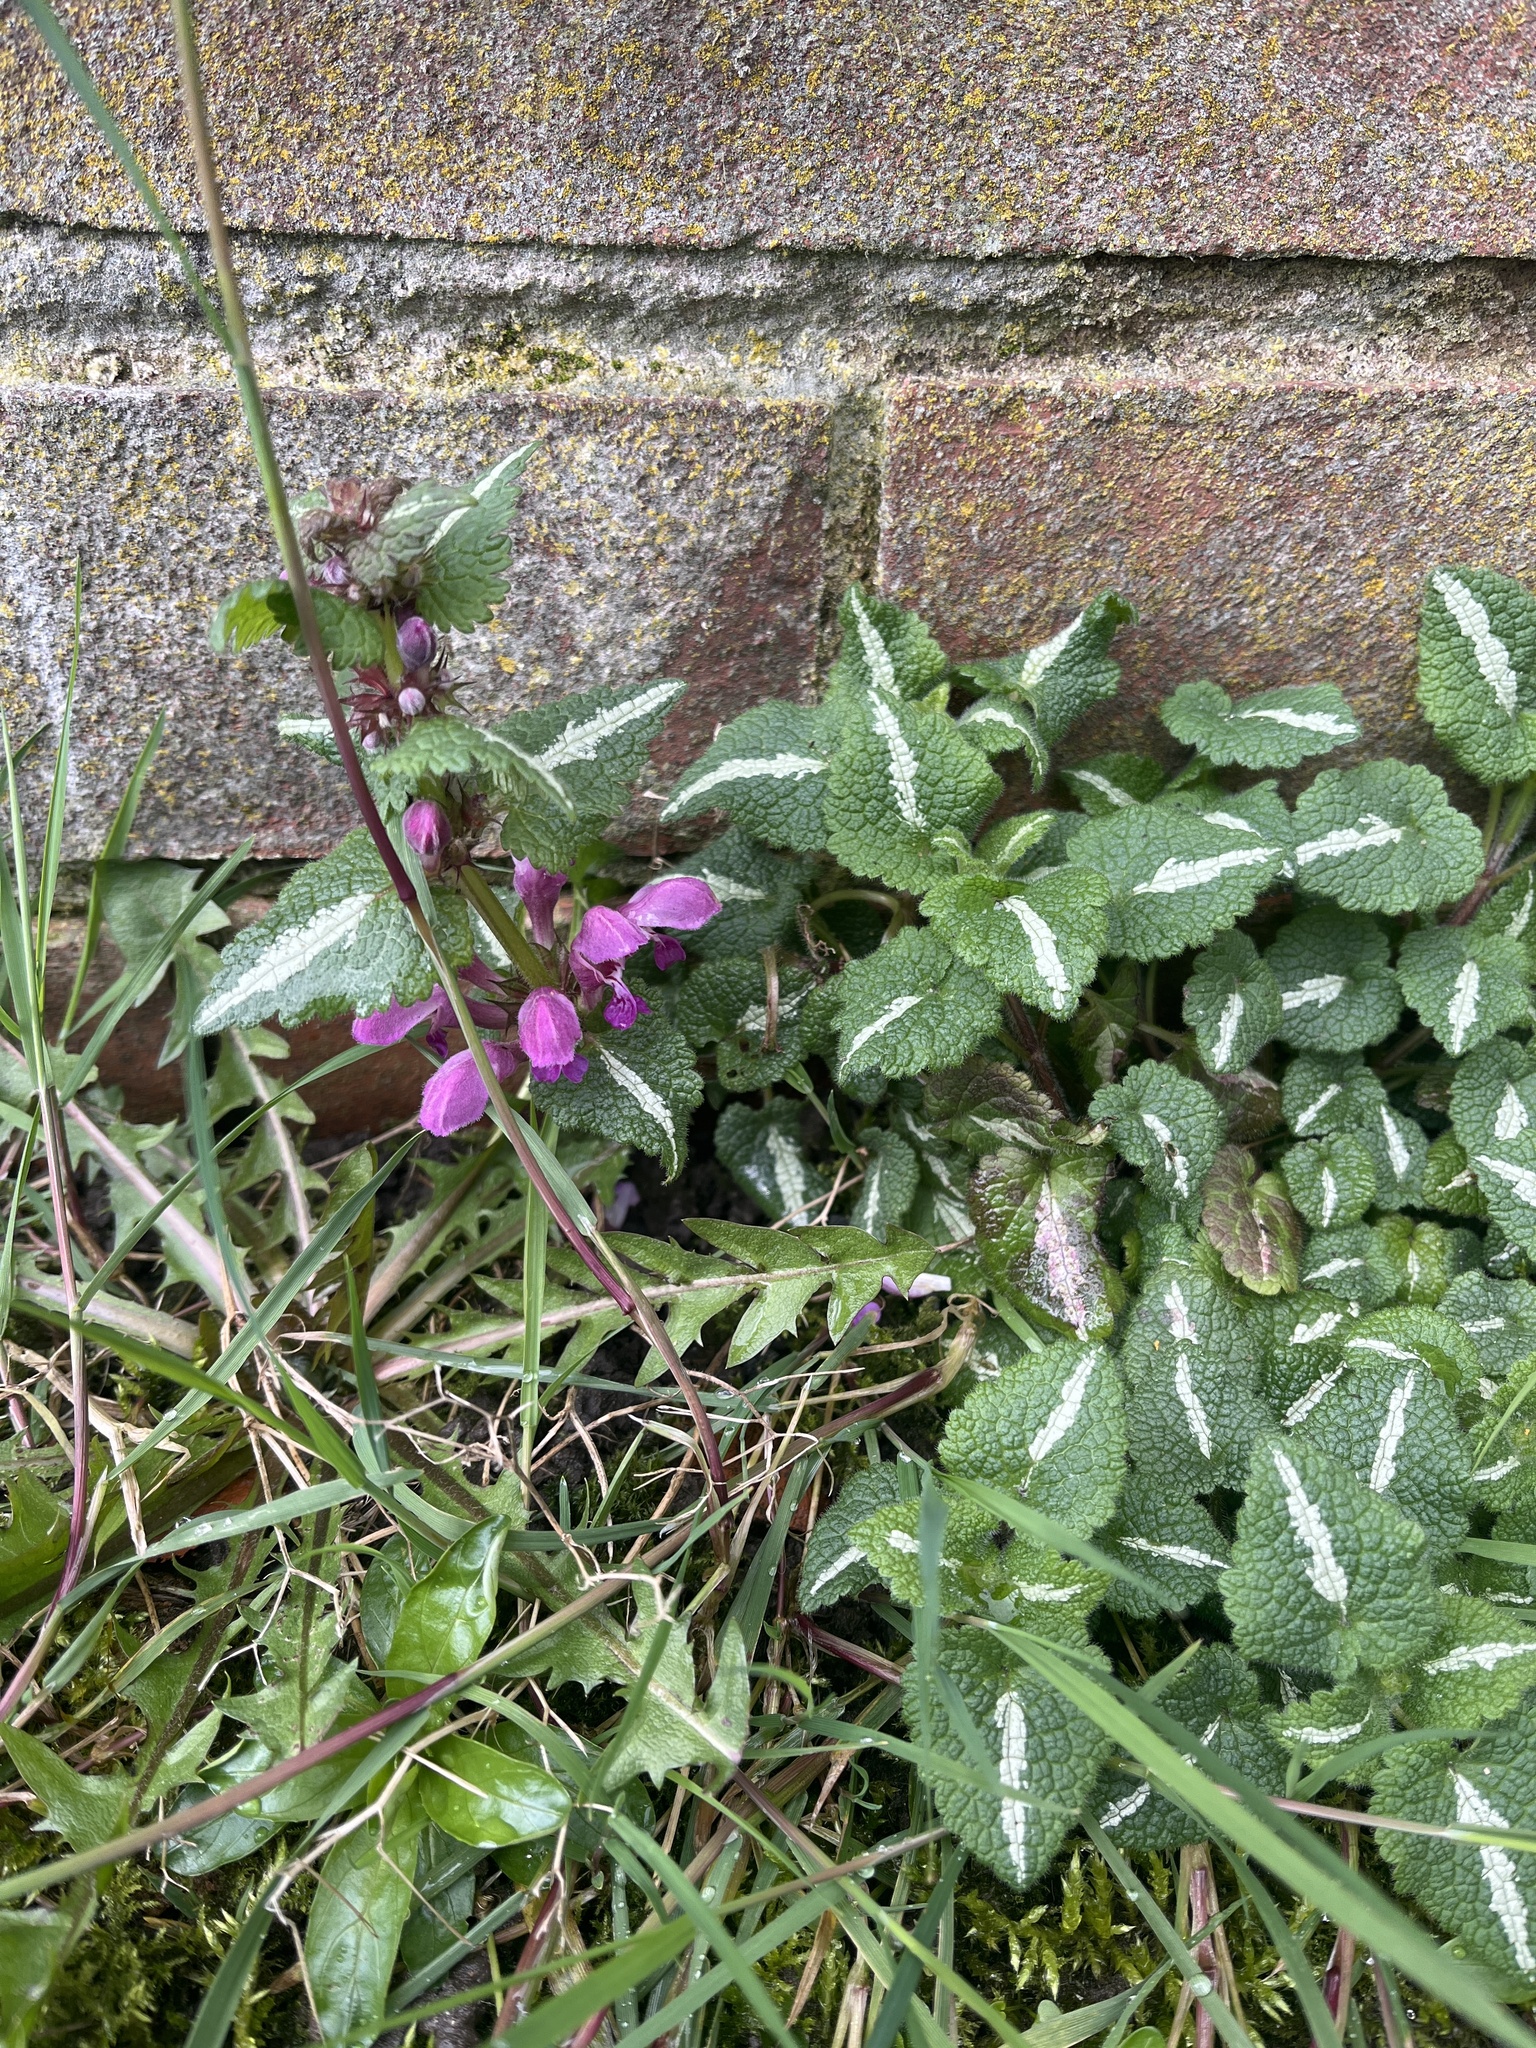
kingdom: Plantae
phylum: Tracheophyta
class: Magnoliopsida
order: Lamiales
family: Lamiaceae
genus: Lamium
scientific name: Lamium maculatum
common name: Spotted dead-nettle
